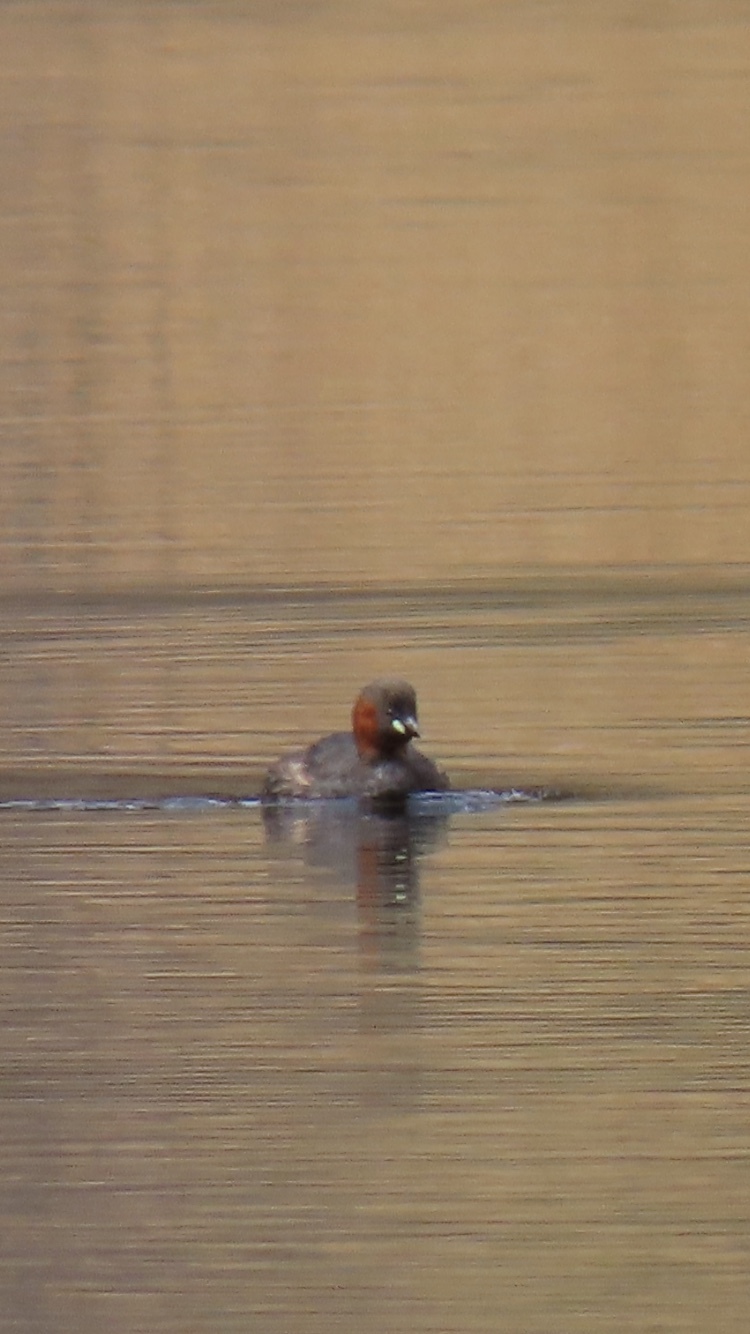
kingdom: Animalia
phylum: Chordata
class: Aves
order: Podicipediformes
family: Podicipedidae
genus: Tachybaptus
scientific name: Tachybaptus ruficollis
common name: Little grebe
